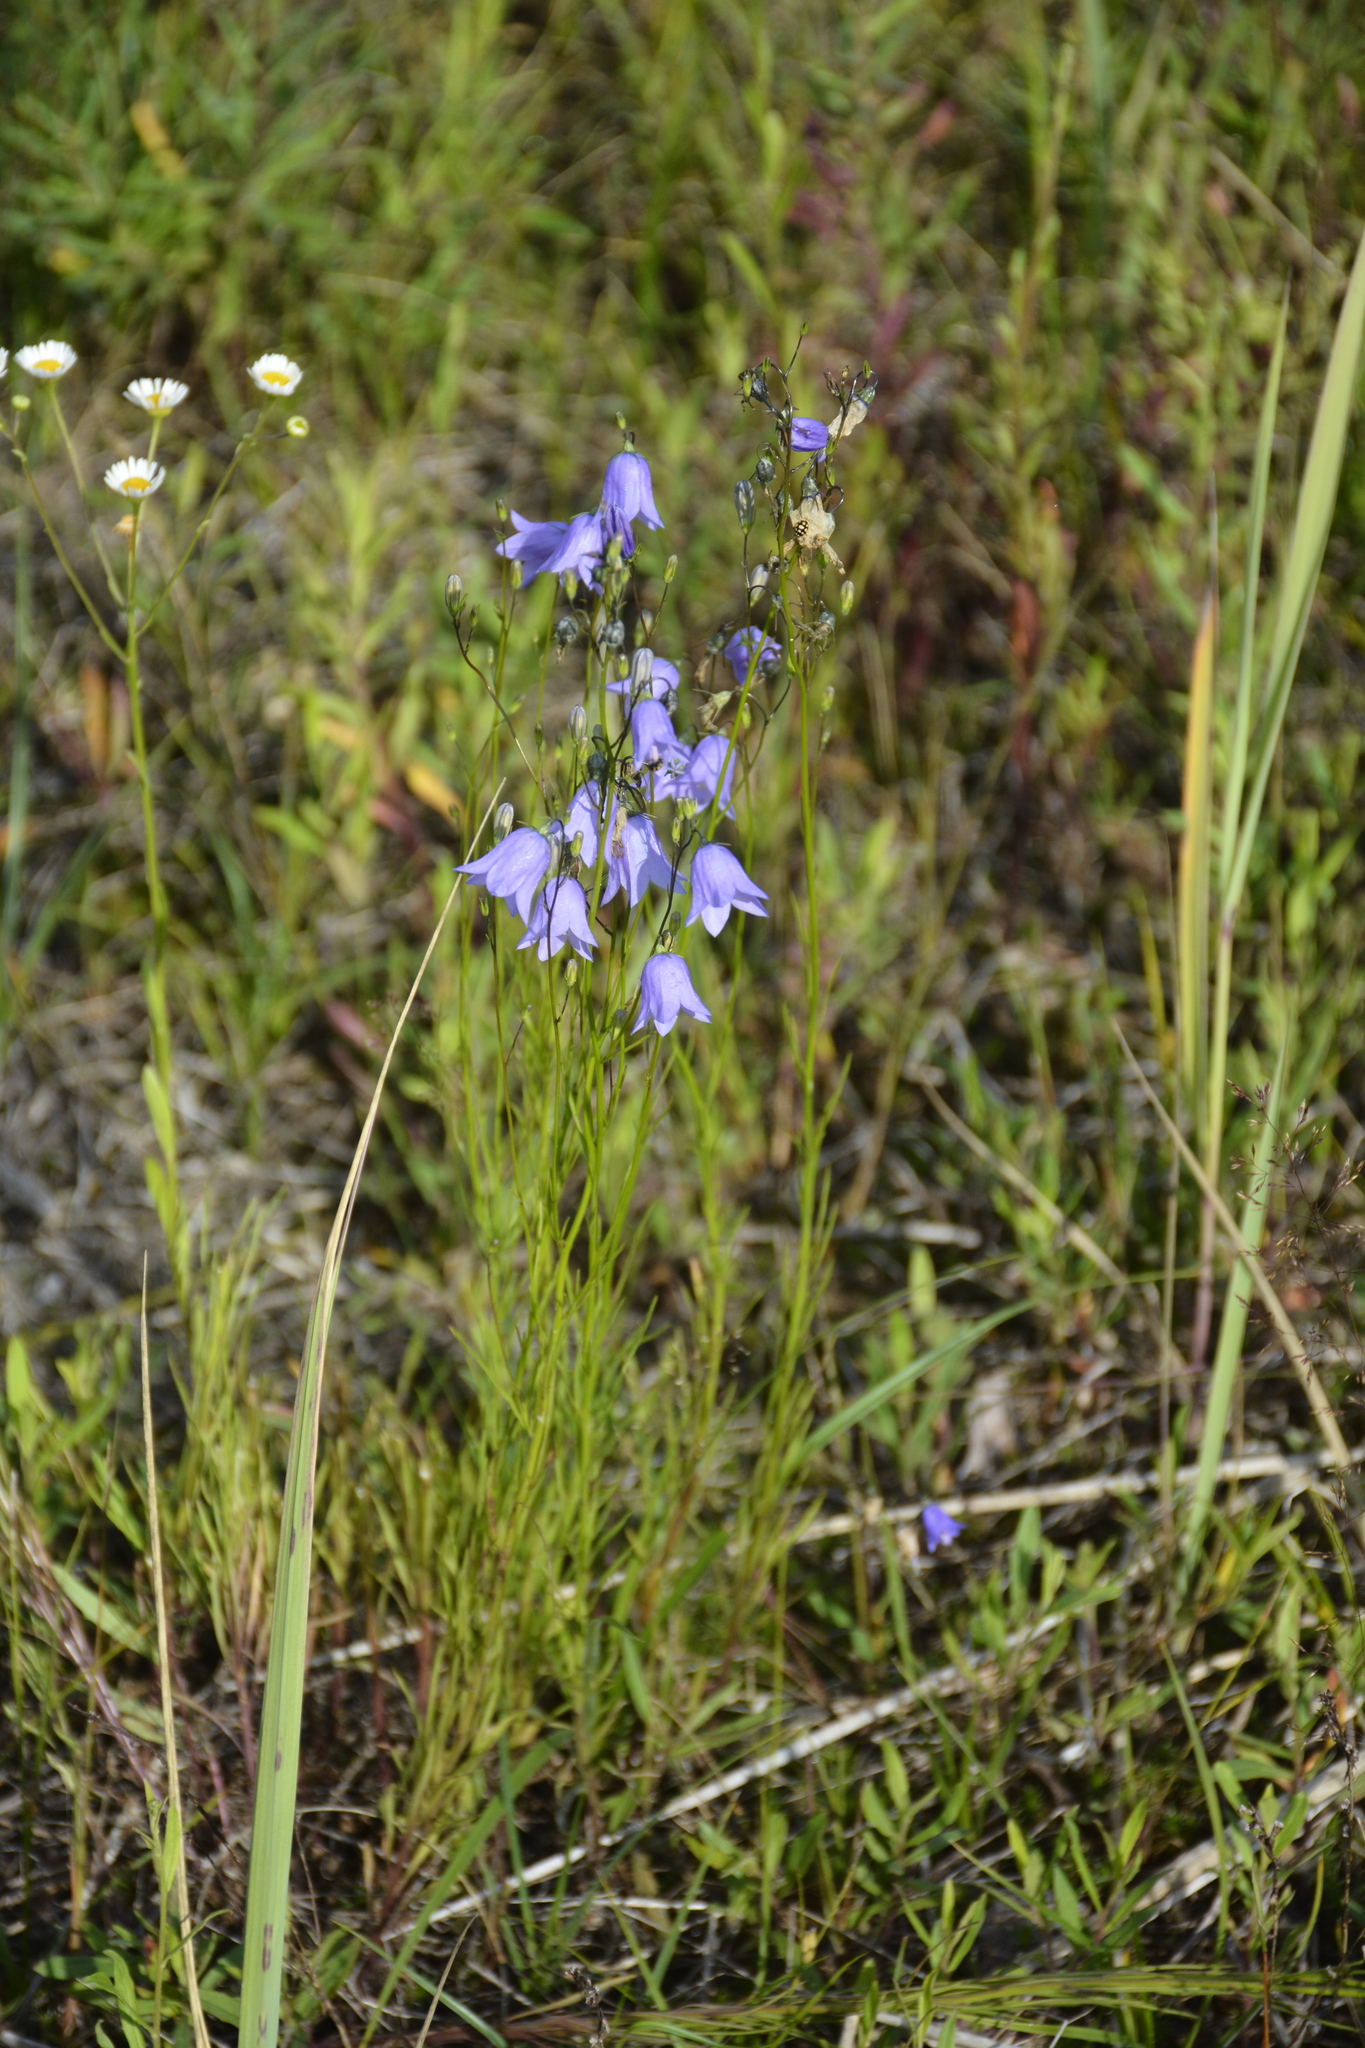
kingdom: Plantae
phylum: Tracheophyta
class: Magnoliopsida
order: Asterales
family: Campanulaceae
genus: Campanula
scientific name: Campanula rotundifolia
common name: Harebell
